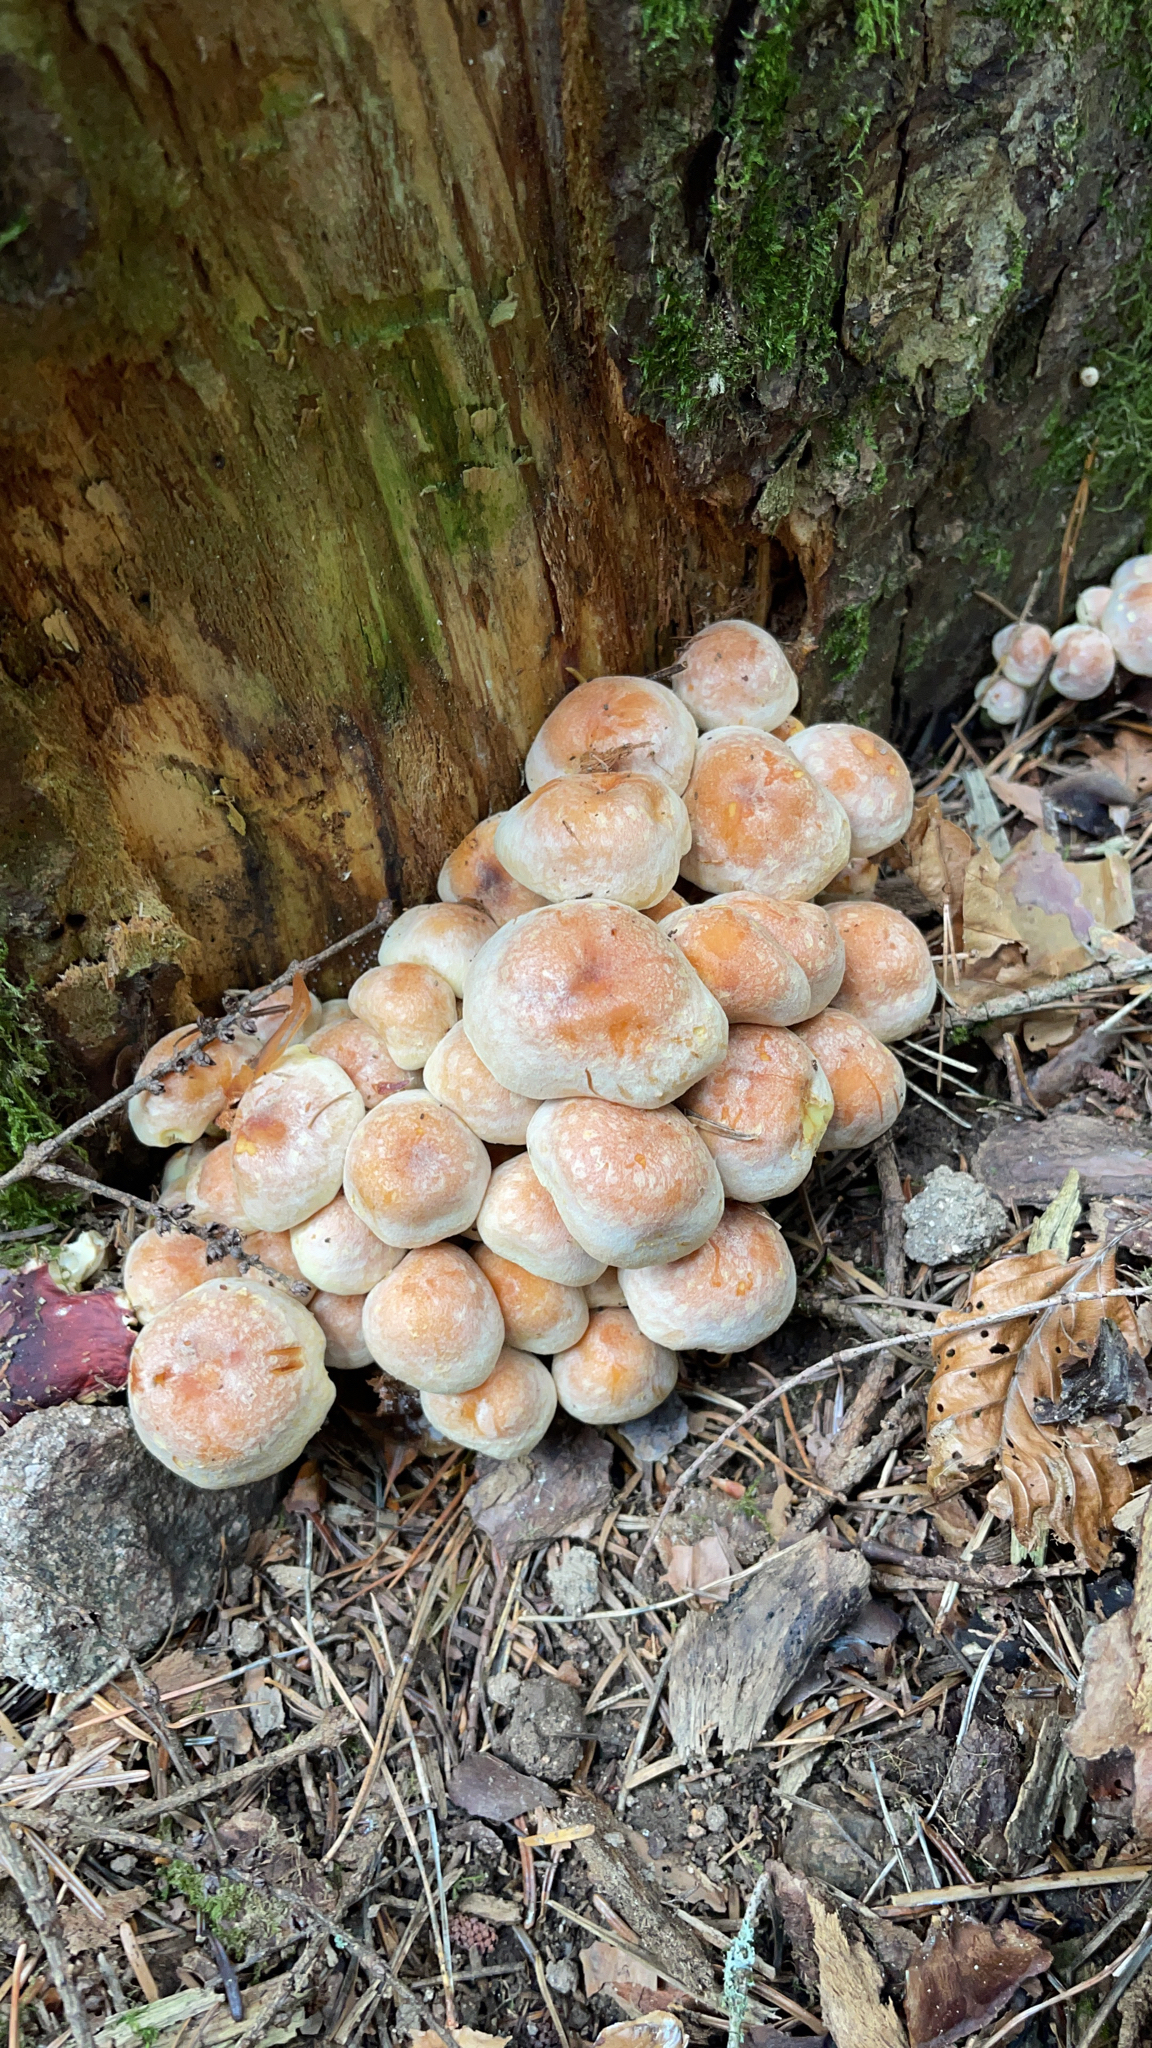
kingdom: Fungi
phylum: Basidiomycota
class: Agaricomycetes
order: Agaricales
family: Strophariaceae
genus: Hypholoma
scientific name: Hypholoma lateritium
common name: Brick caps
